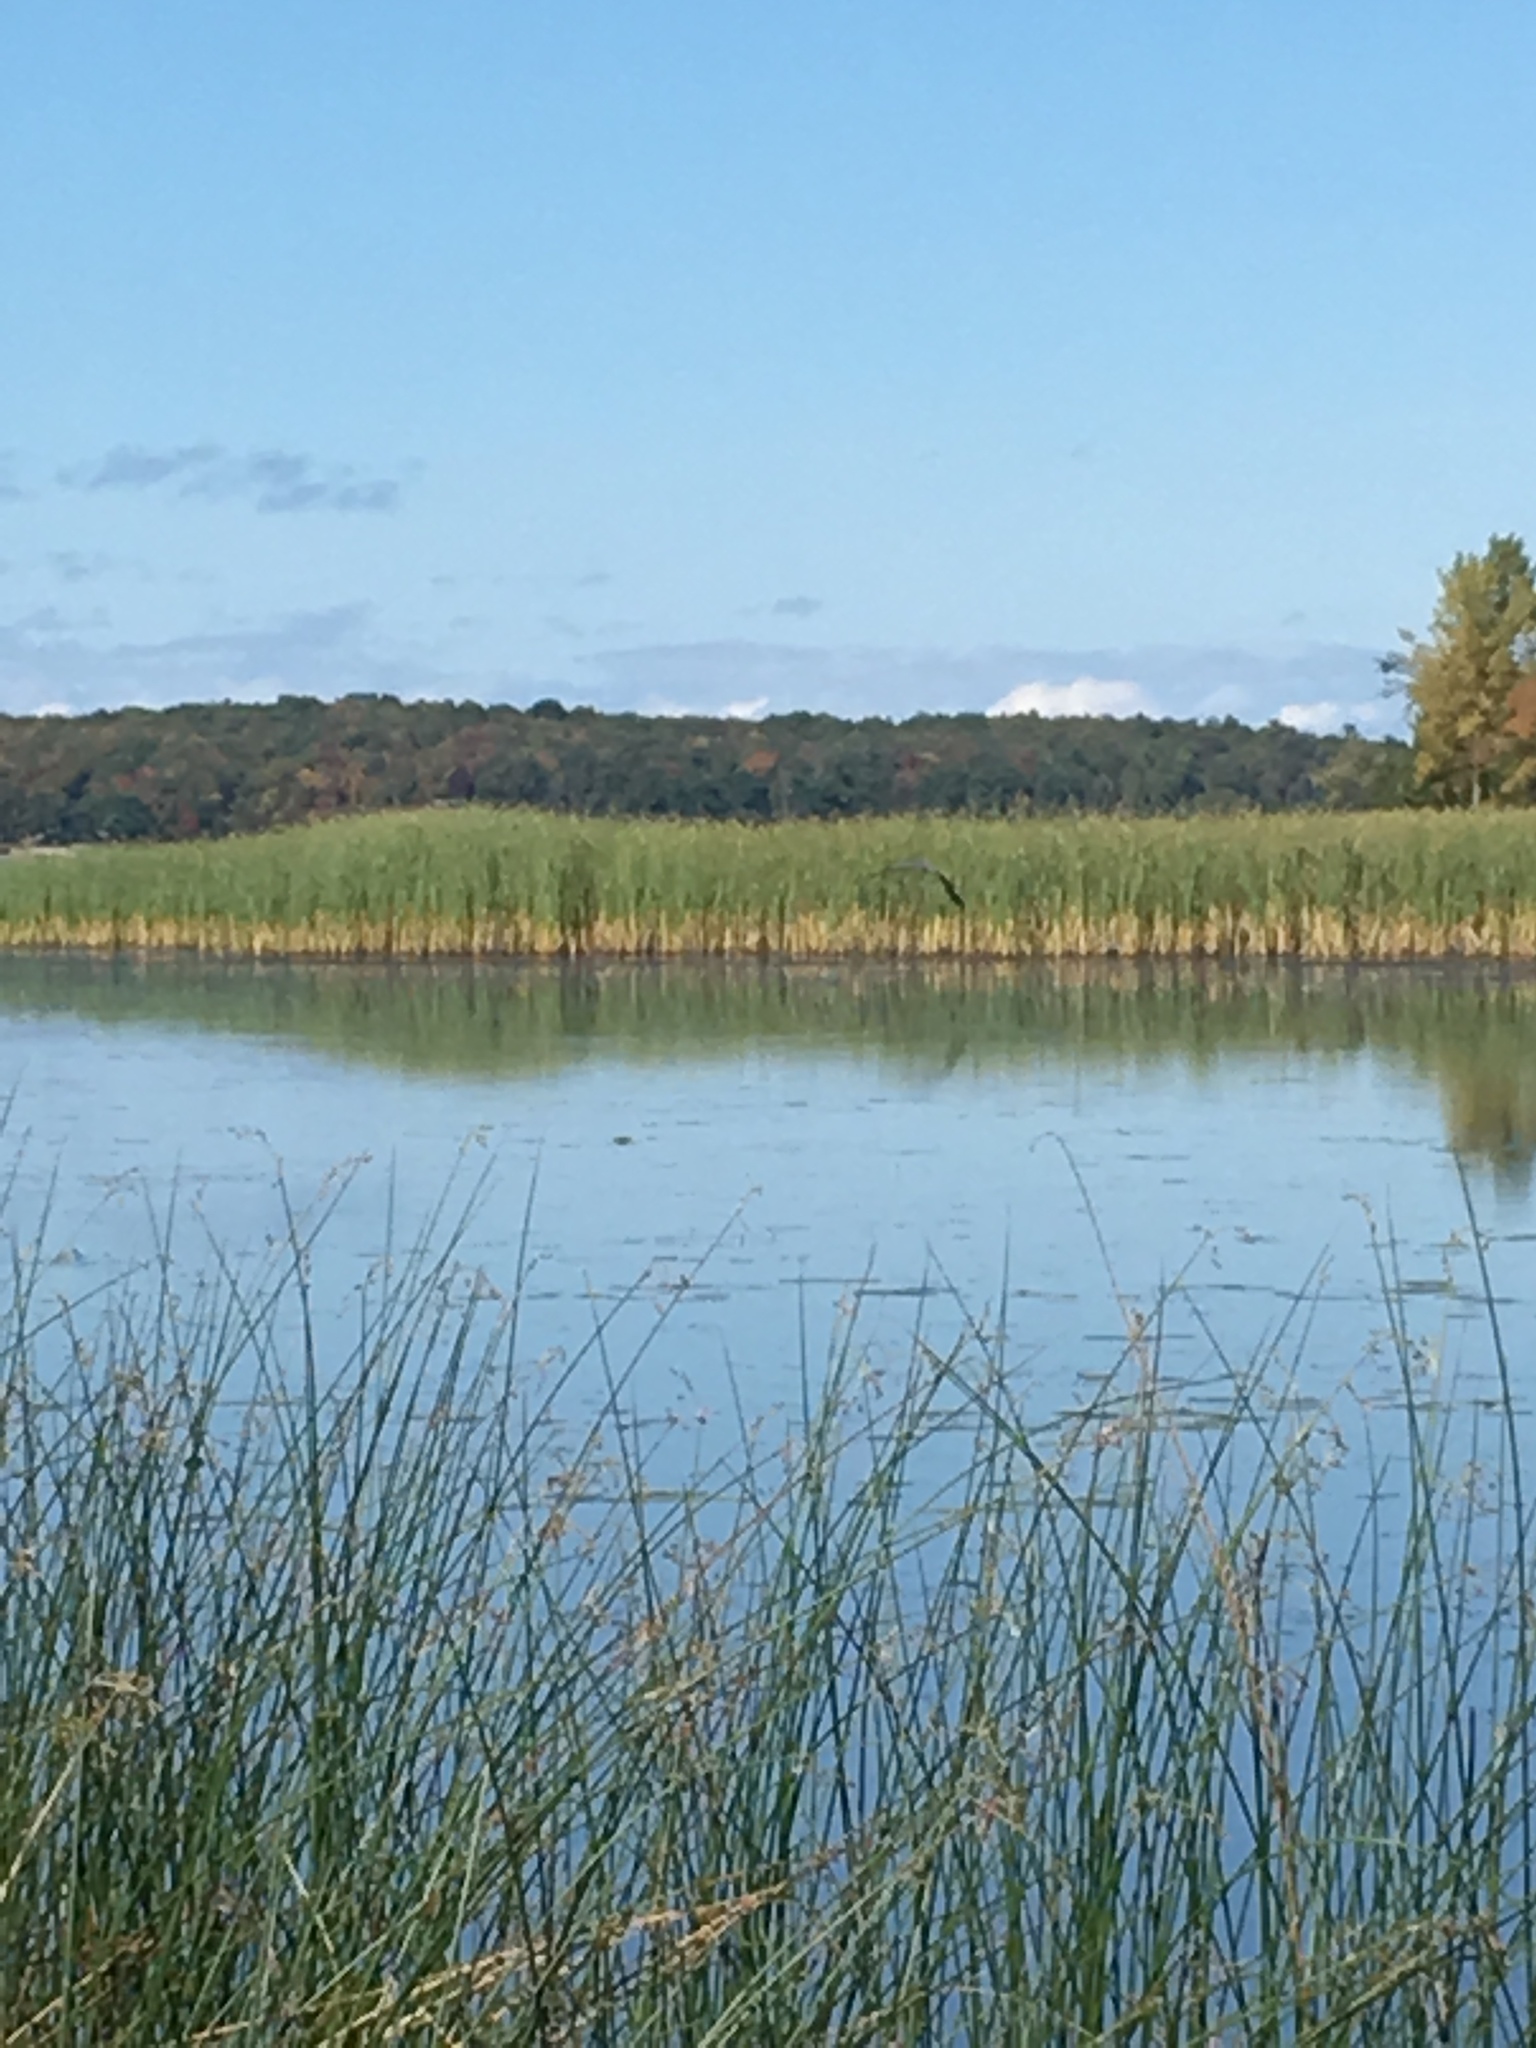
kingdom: Animalia
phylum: Chordata
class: Aves
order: Pelecaniformes
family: Ardeidae
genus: Ardea
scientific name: Ardea herodias
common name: Great blue heron
